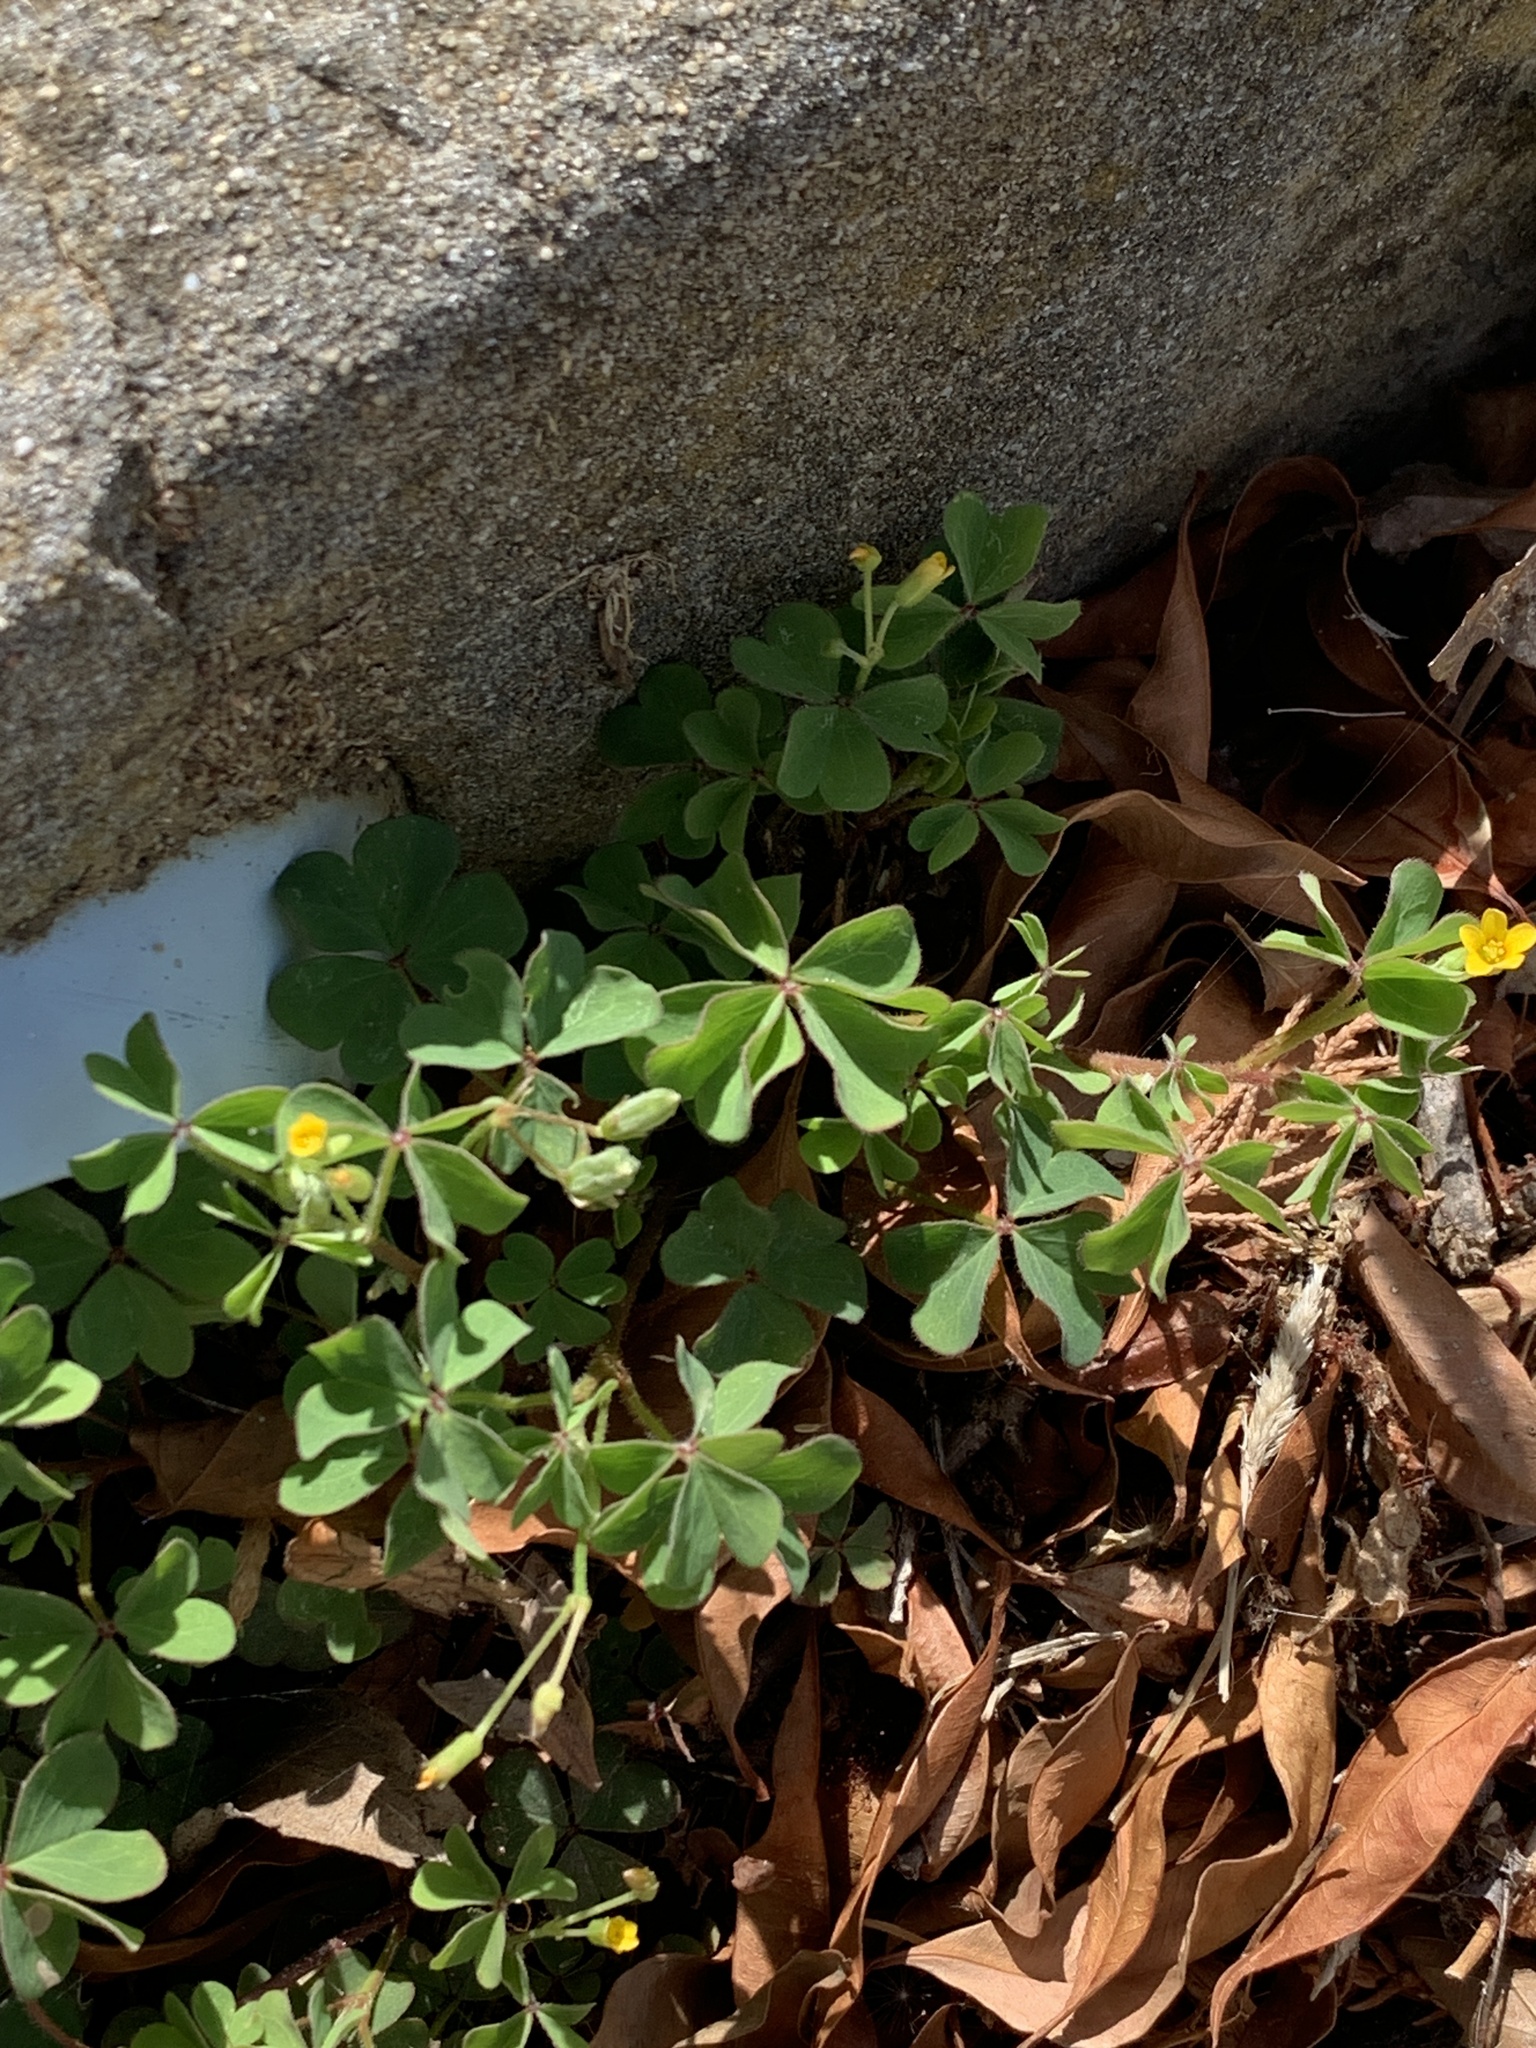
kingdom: Plantae
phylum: Tracheophyta
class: Magnoliopsida
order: Oxalidales
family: Oxalidaceae
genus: Oxalis
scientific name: Oxalis corniculata
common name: Procumbent yellow-sorrel
